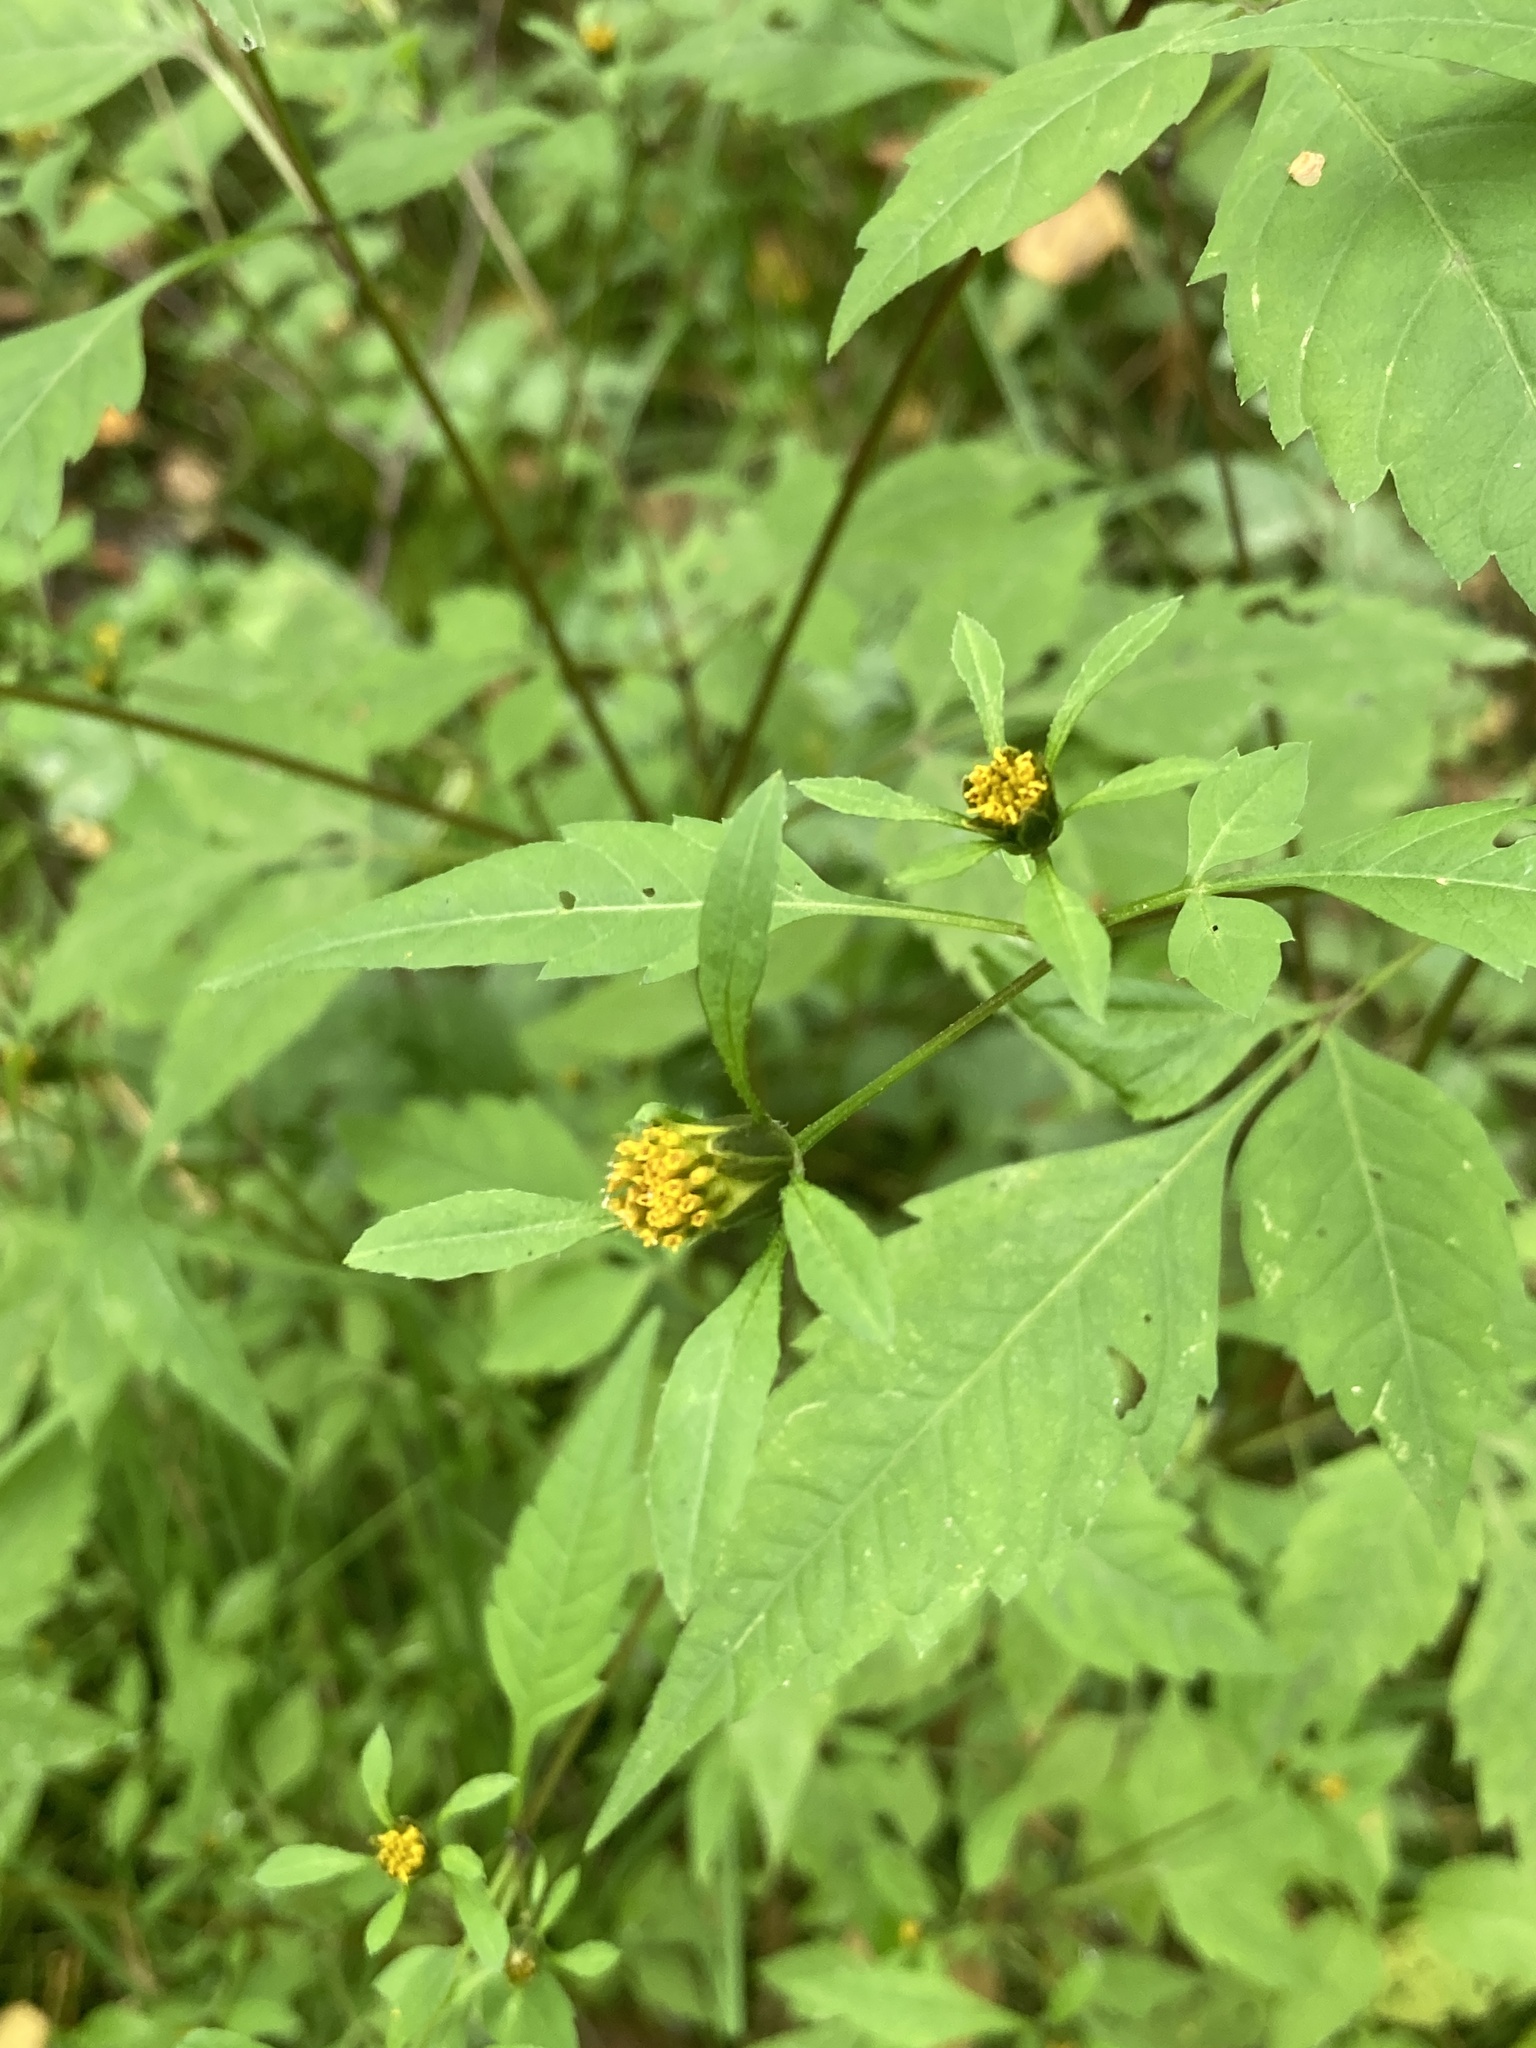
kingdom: Plantae
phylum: Tracheophyta
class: Magnoliopsida
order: Asterales
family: Asteraceae
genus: Bidens
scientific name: Bidens frondosa
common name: Beggarticks
